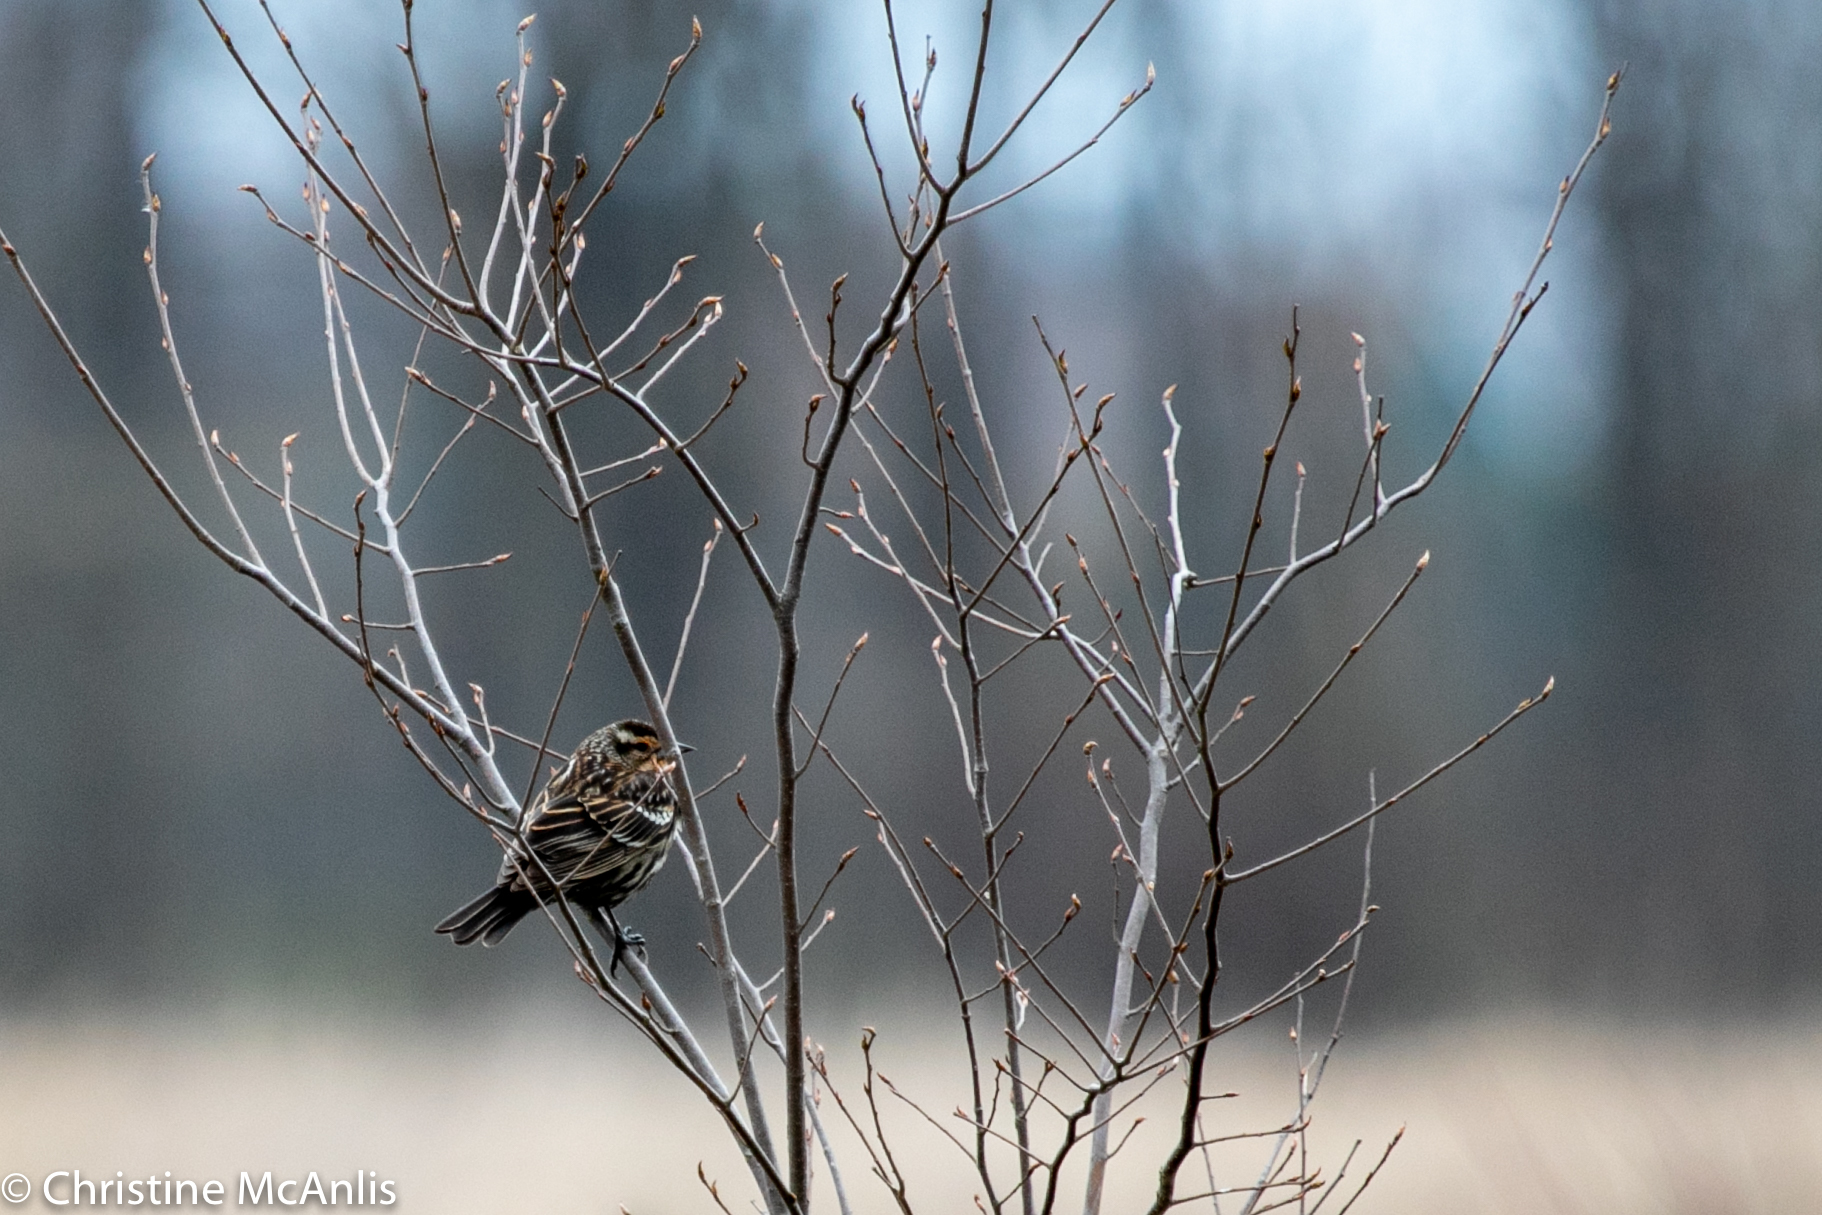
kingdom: Animalia
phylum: Chordata
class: Aves
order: Passeriformes
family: Icteridae
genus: Agelaius
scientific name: Agelaius phoeniceus
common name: Red-winged blackbird
